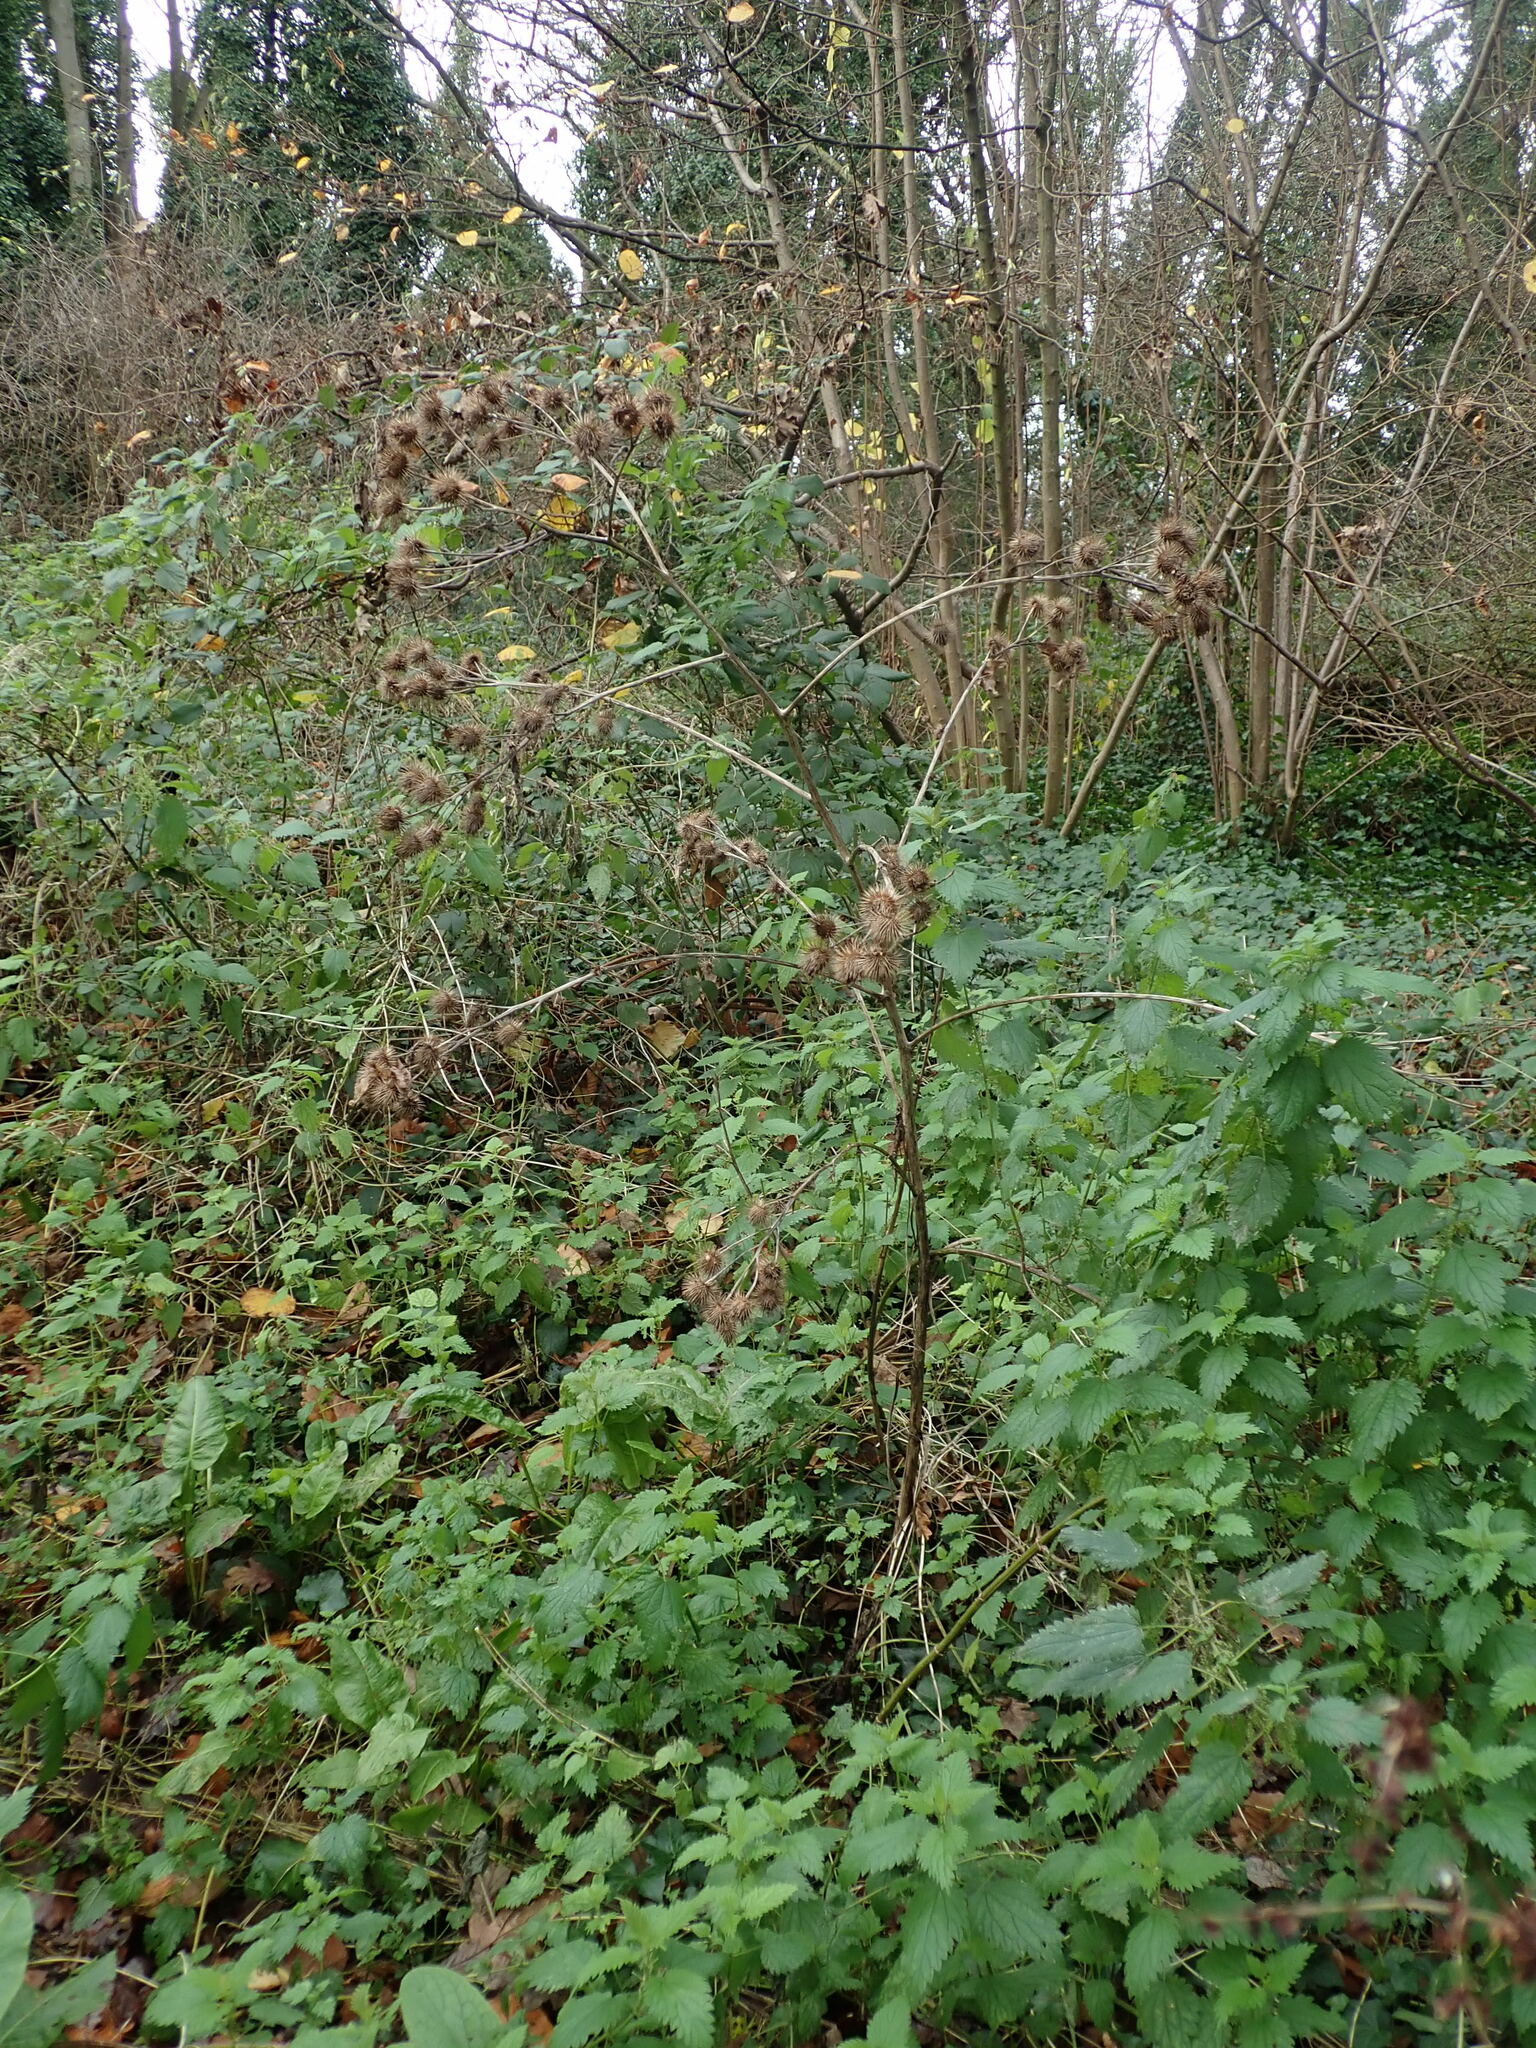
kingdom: Plantae
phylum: Tracheophyta
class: Magnoliopsida
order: Asterales
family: Asteraceae
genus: Arctium
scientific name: Arctium lappa
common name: Greater burdock
